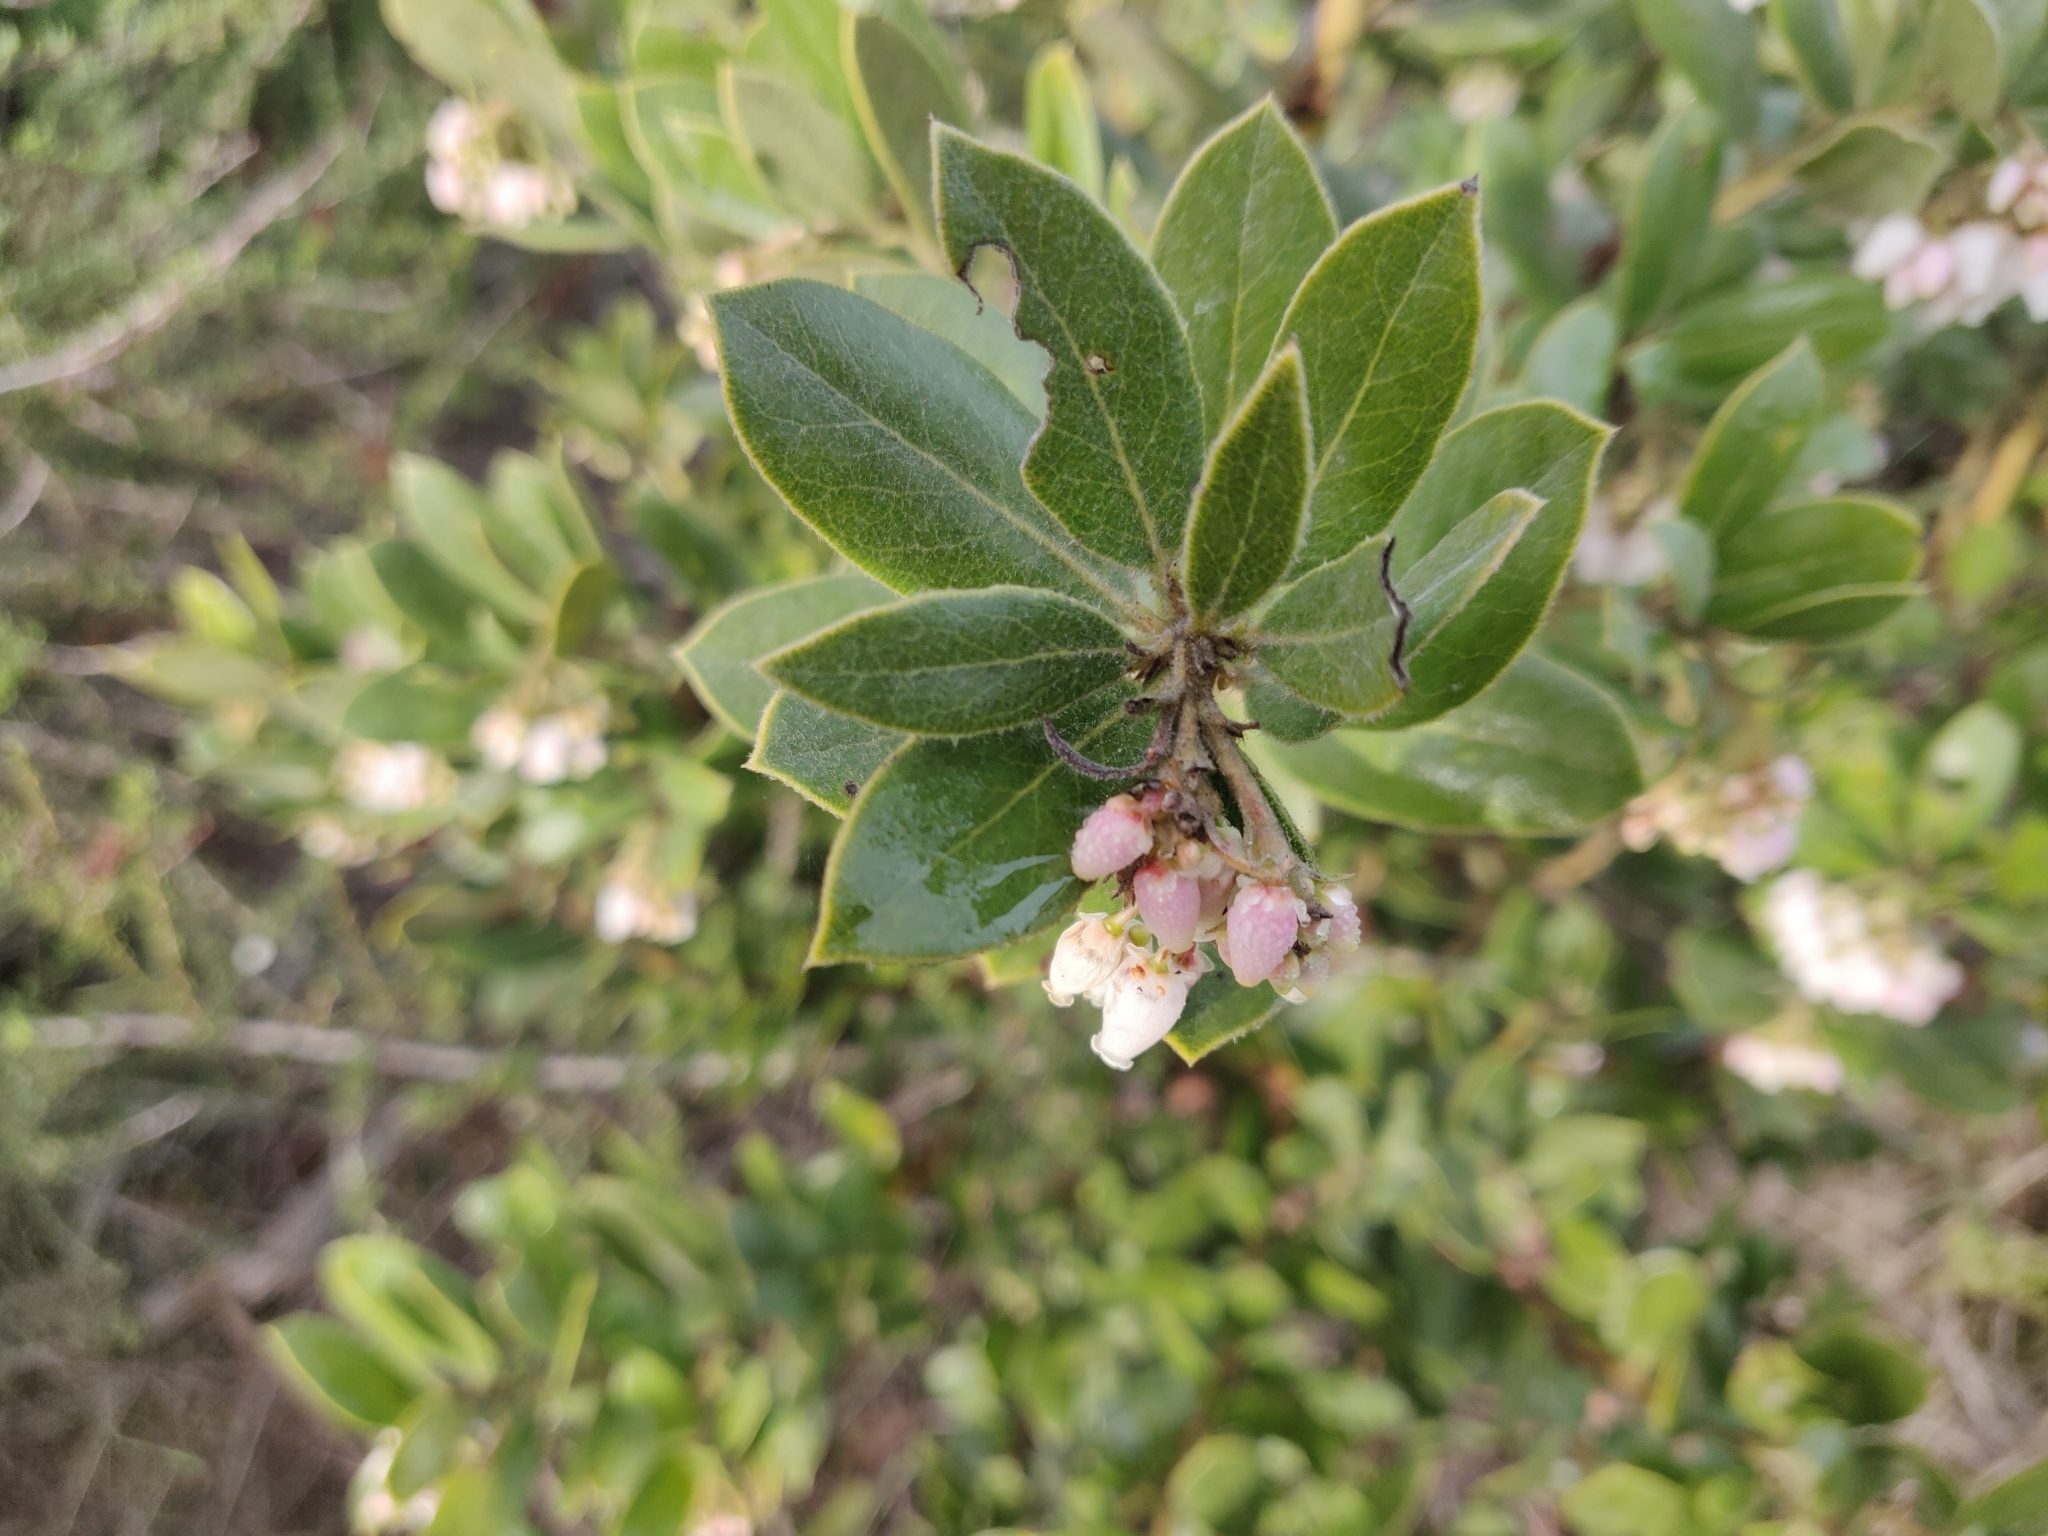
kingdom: Plantae
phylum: Tracheophyta
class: Magnoliopsida
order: Ericales
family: Ericaceae
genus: Arctostaphylos
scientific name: Arctostaphylos tomentosa
